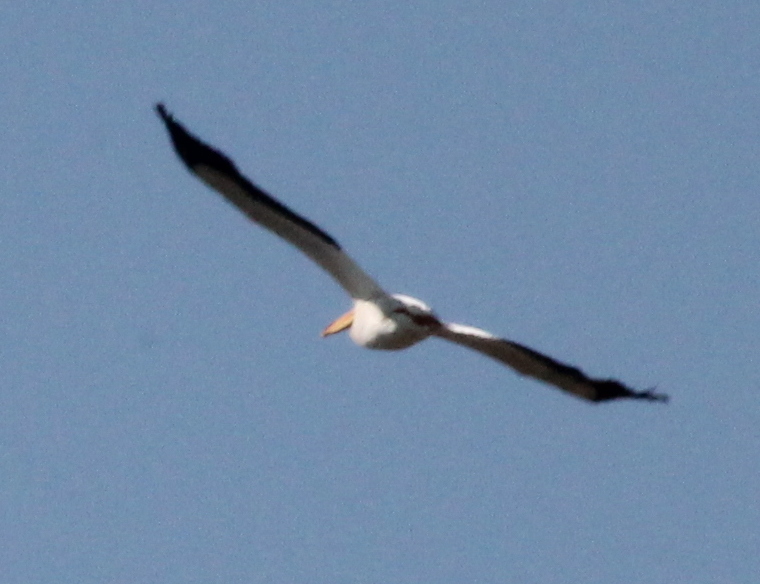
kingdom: Animalia
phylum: Chordata
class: Aves
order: Pelecaniformes
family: Pelecanidae
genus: Pelecanus
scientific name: Pelecanus erythrorhynchos
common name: American white pelican
